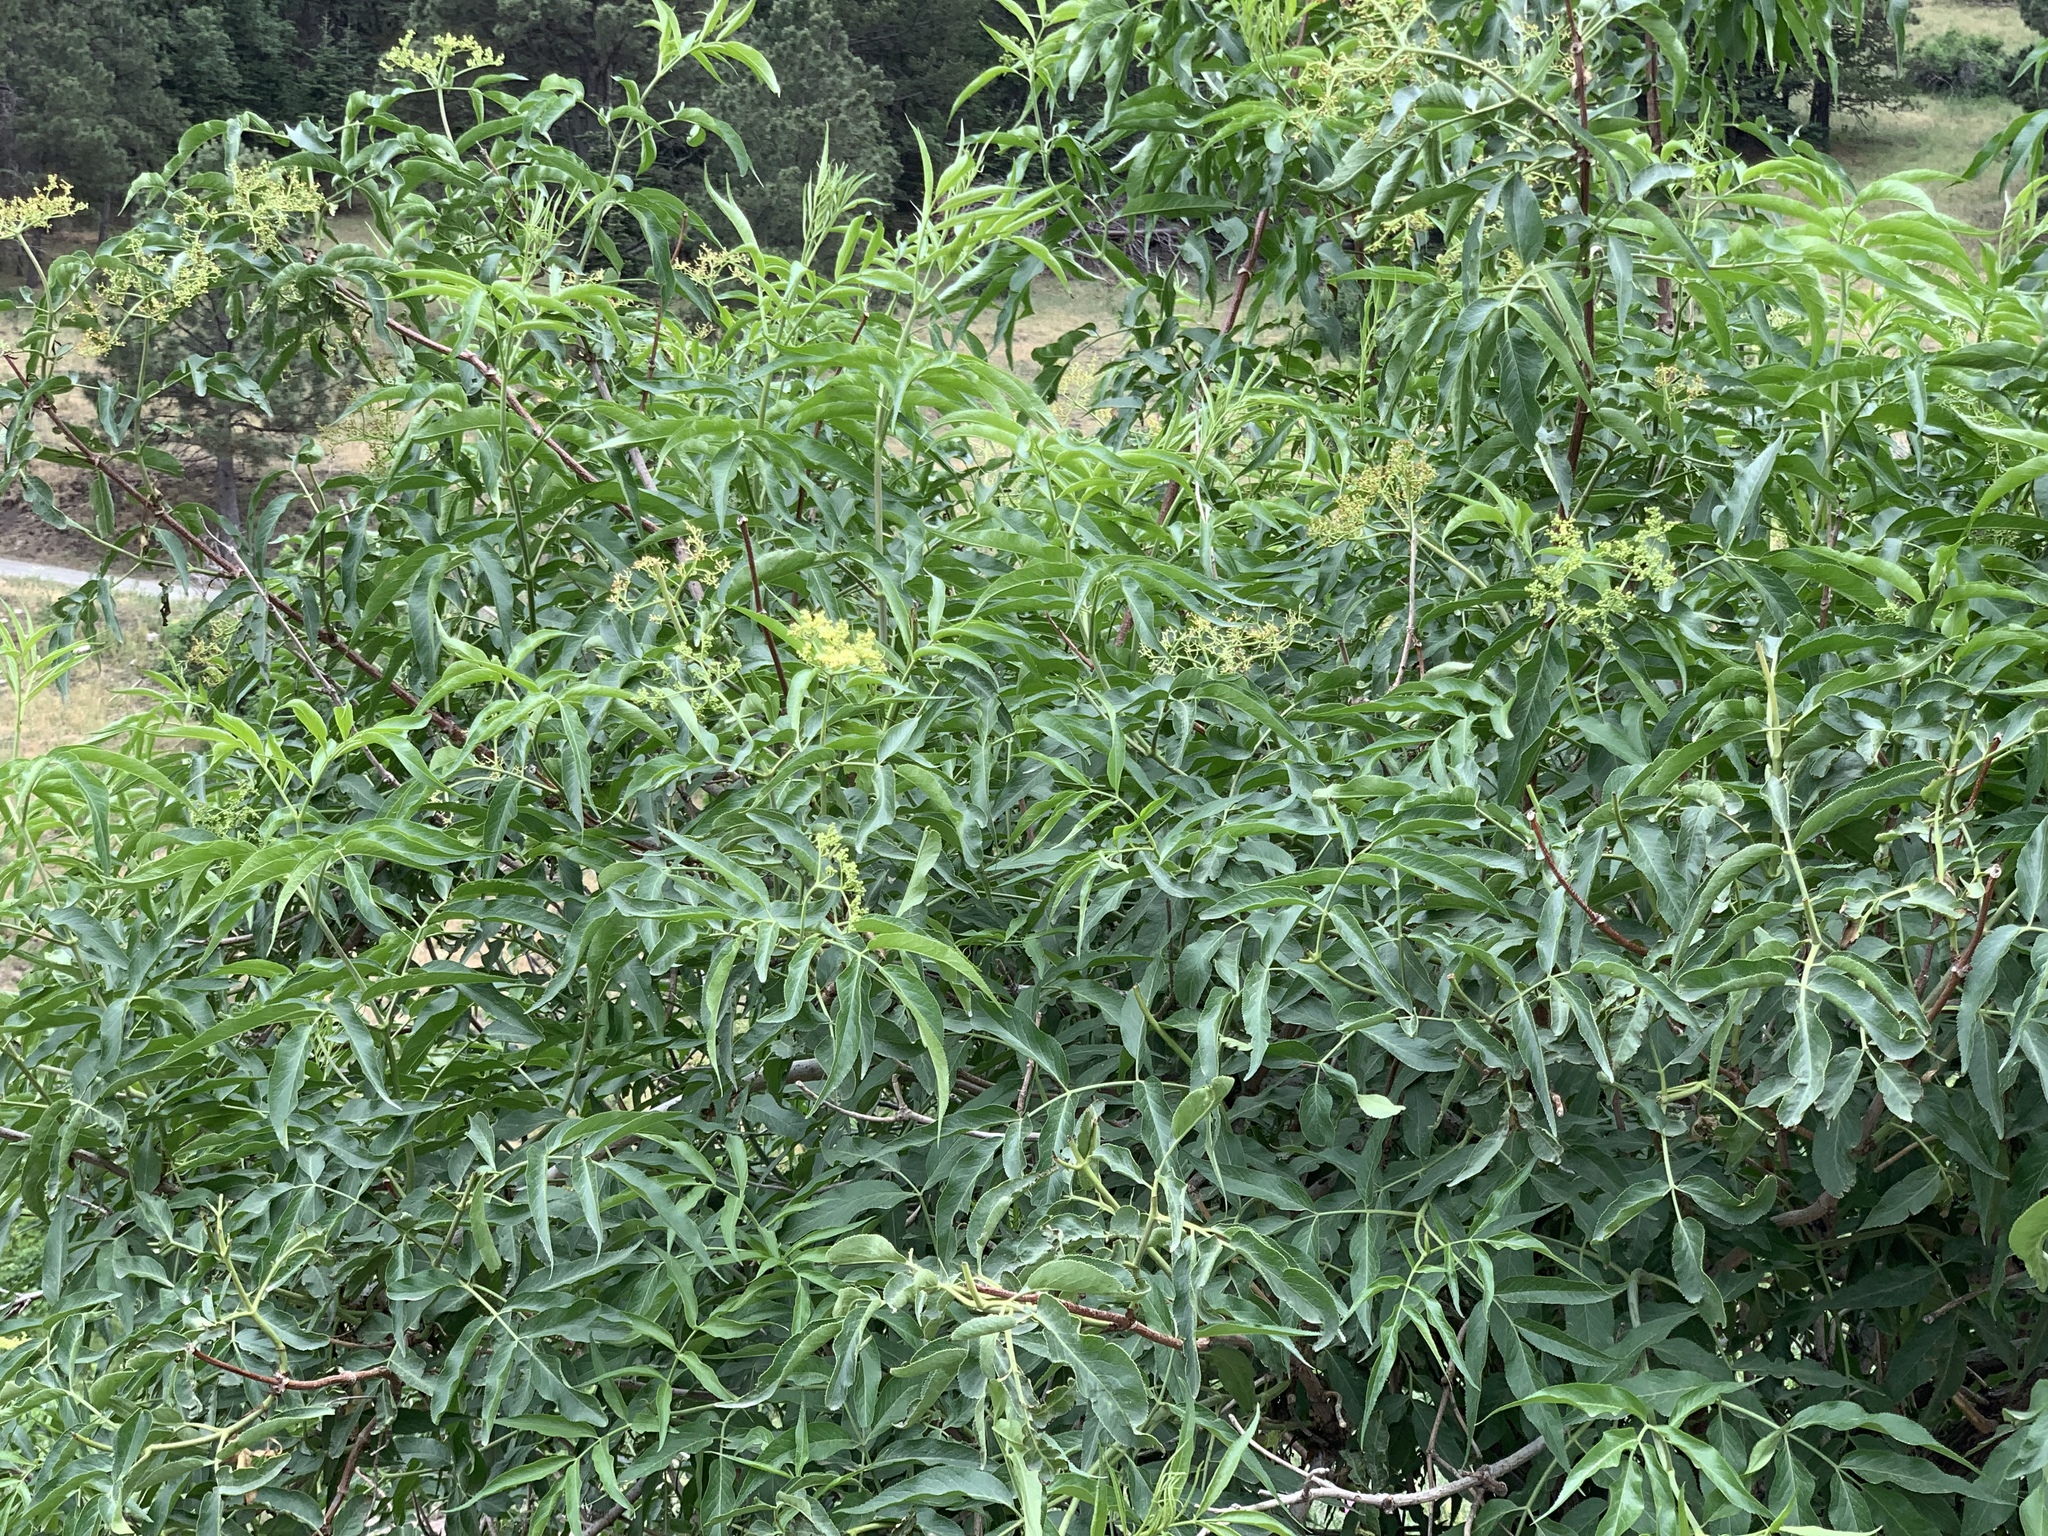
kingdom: Plantae
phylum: Tracheophyta
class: Magnoliopsida
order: Dipsacales
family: Viburnaceae
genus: Sambucus
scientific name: Sambucus cerulea
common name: Blue elder
